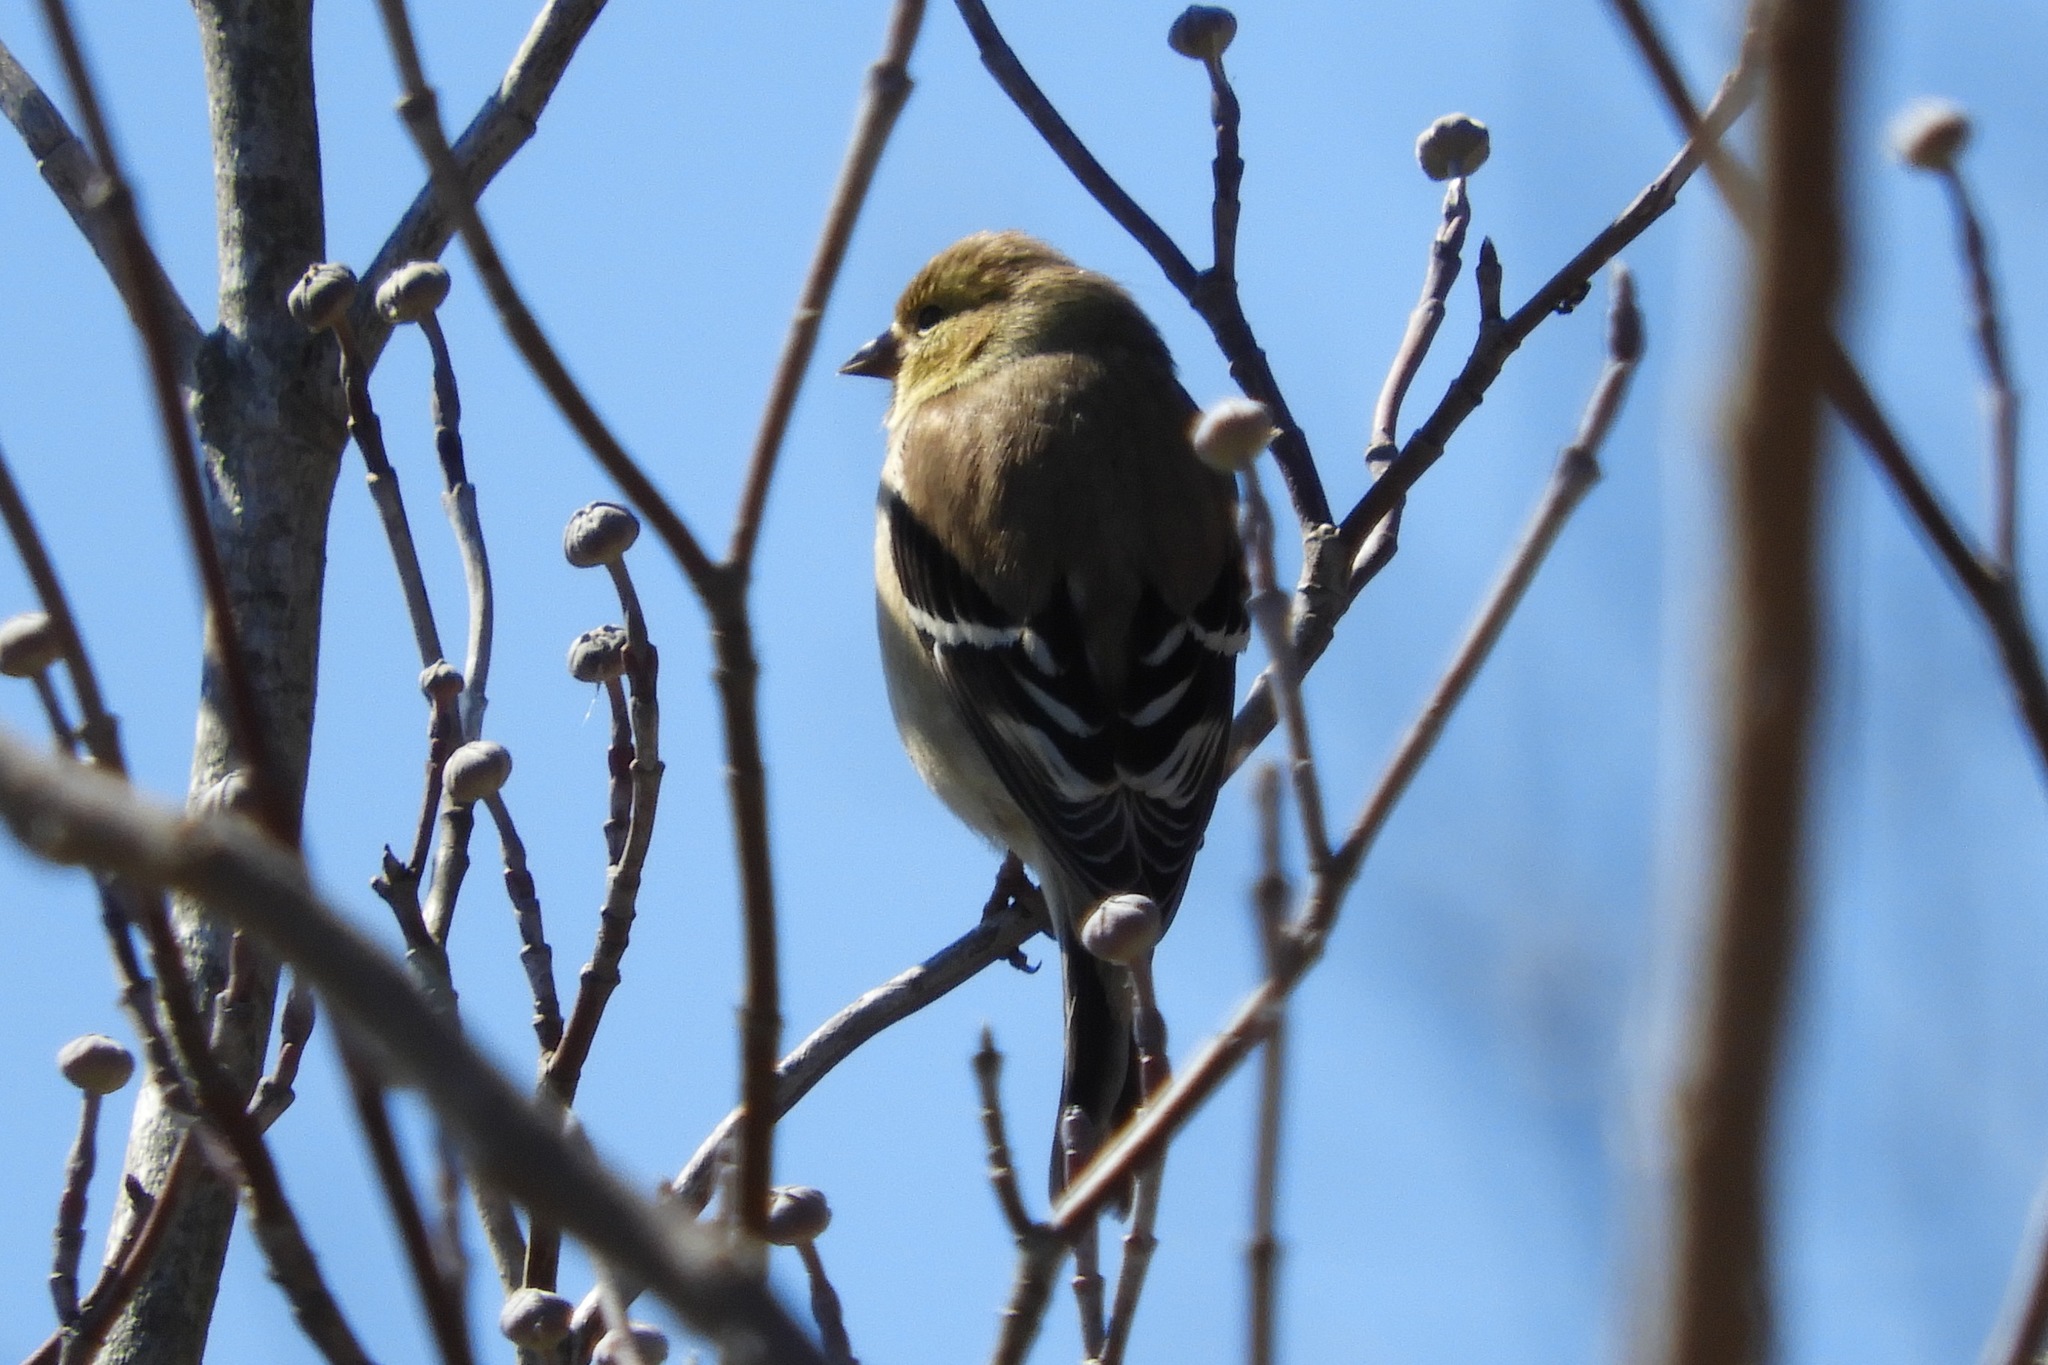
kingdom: Animalia
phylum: Chordata
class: Aves
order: Passeriformes
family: Fringillidae
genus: Spinus
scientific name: Spinus tristis
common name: American goldfinch
